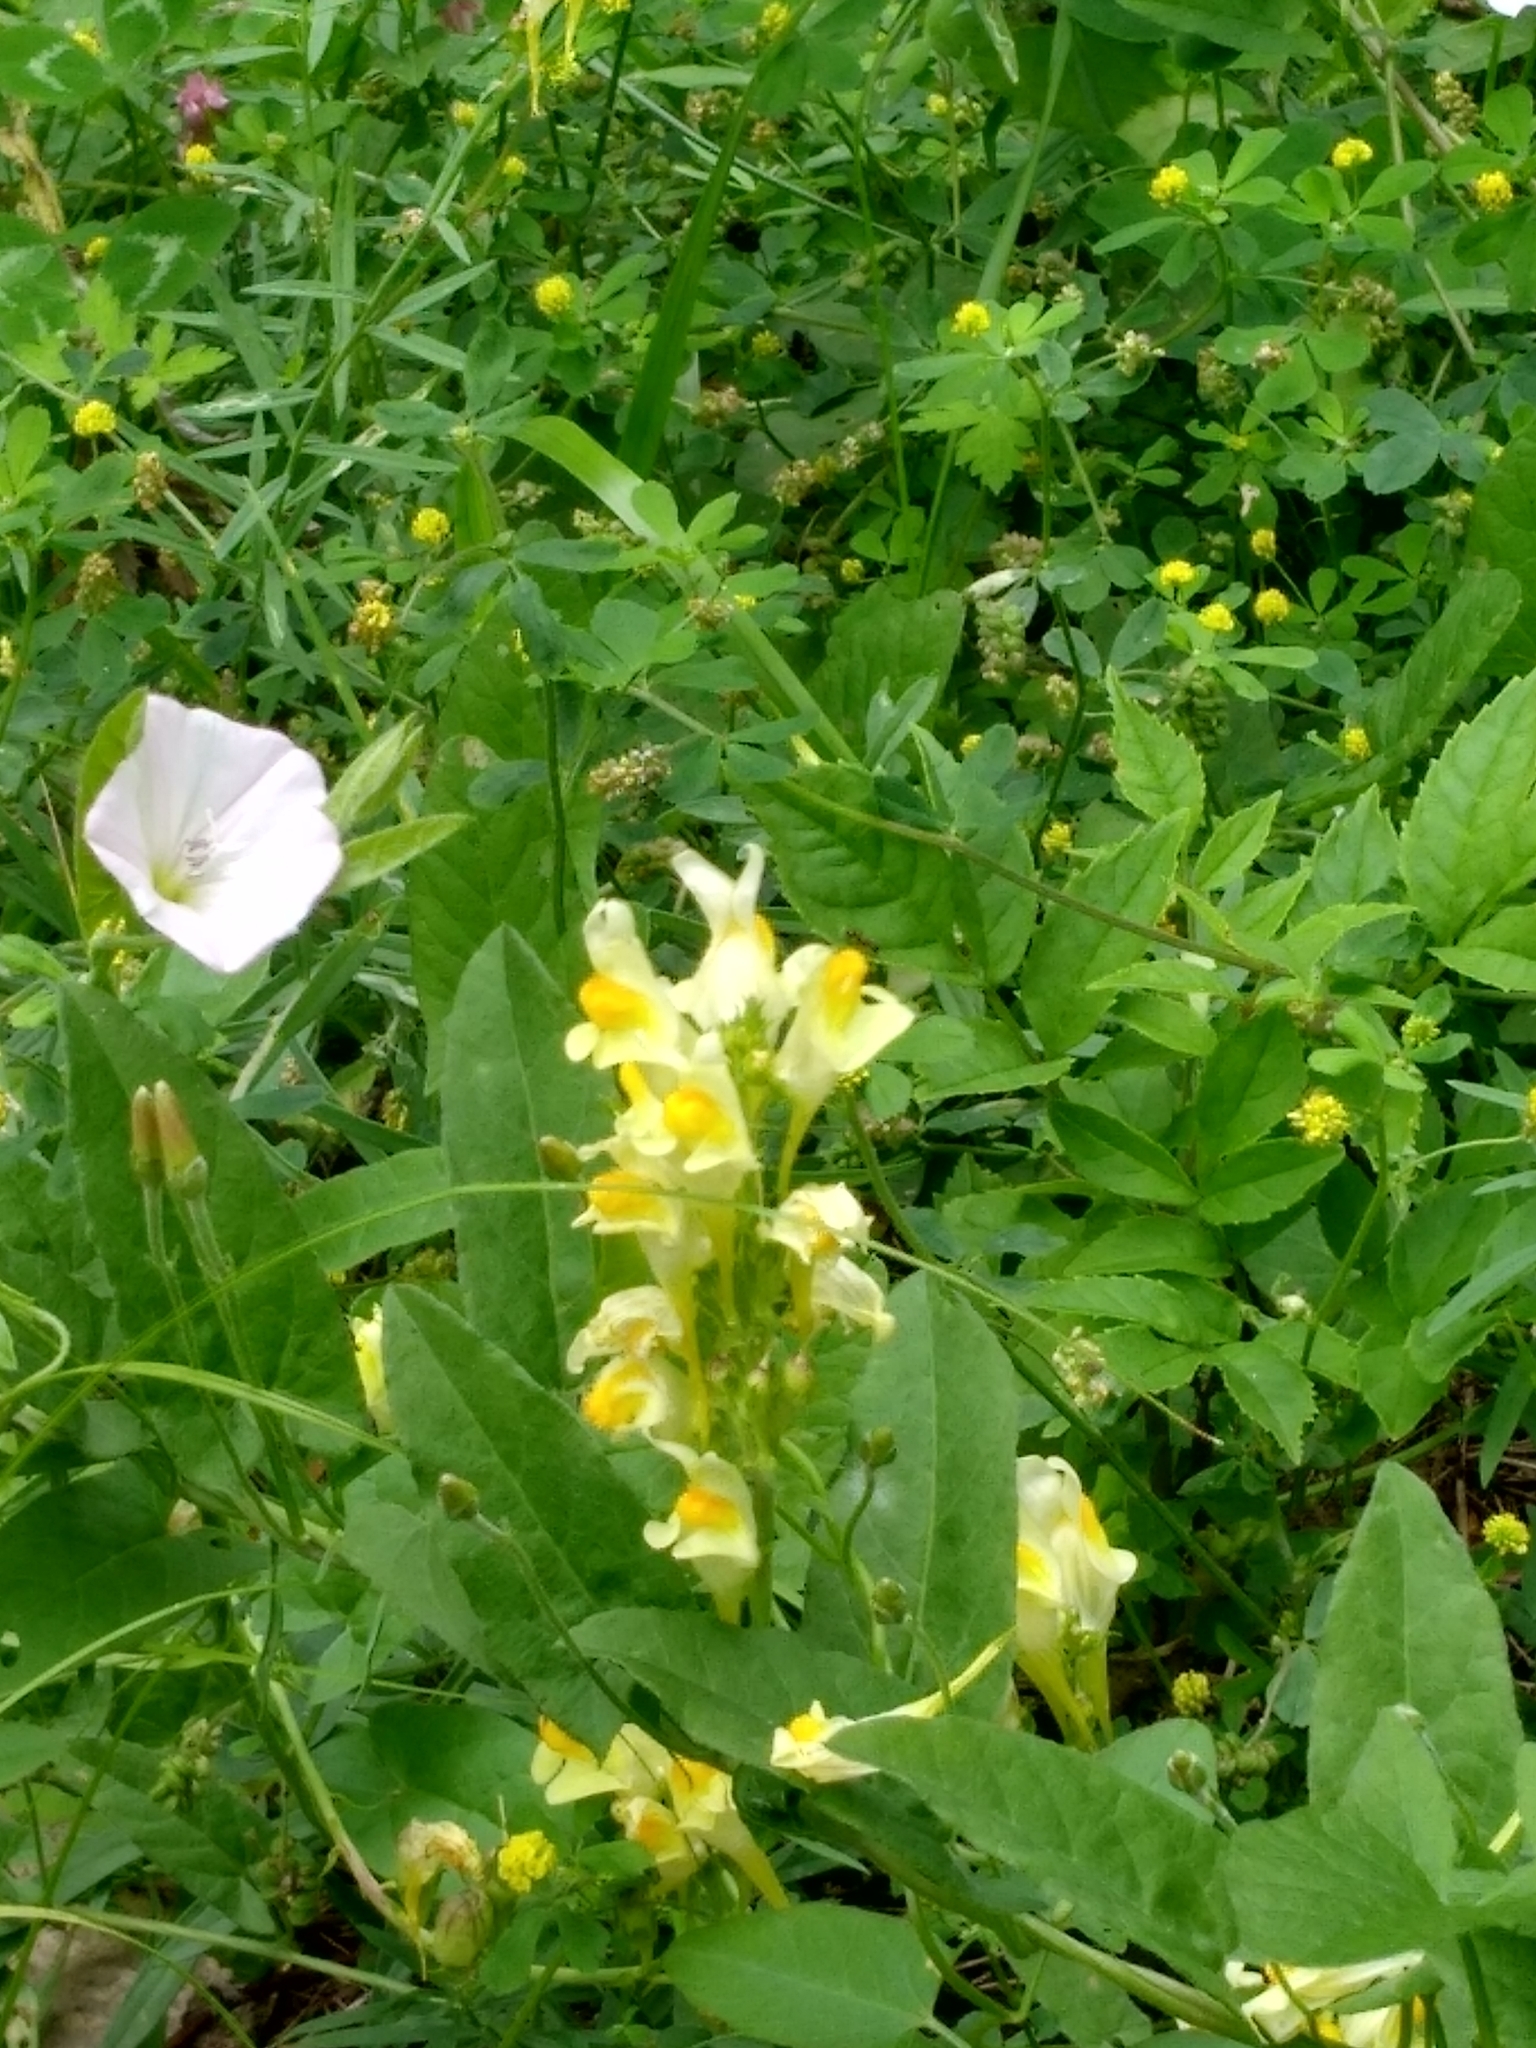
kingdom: Plantae
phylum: Tracheophyta
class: Magnoliopsida
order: Lamiales
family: Plantaginaceae
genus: Linaria
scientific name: Linaria vulgaris
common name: Butter and eggs
